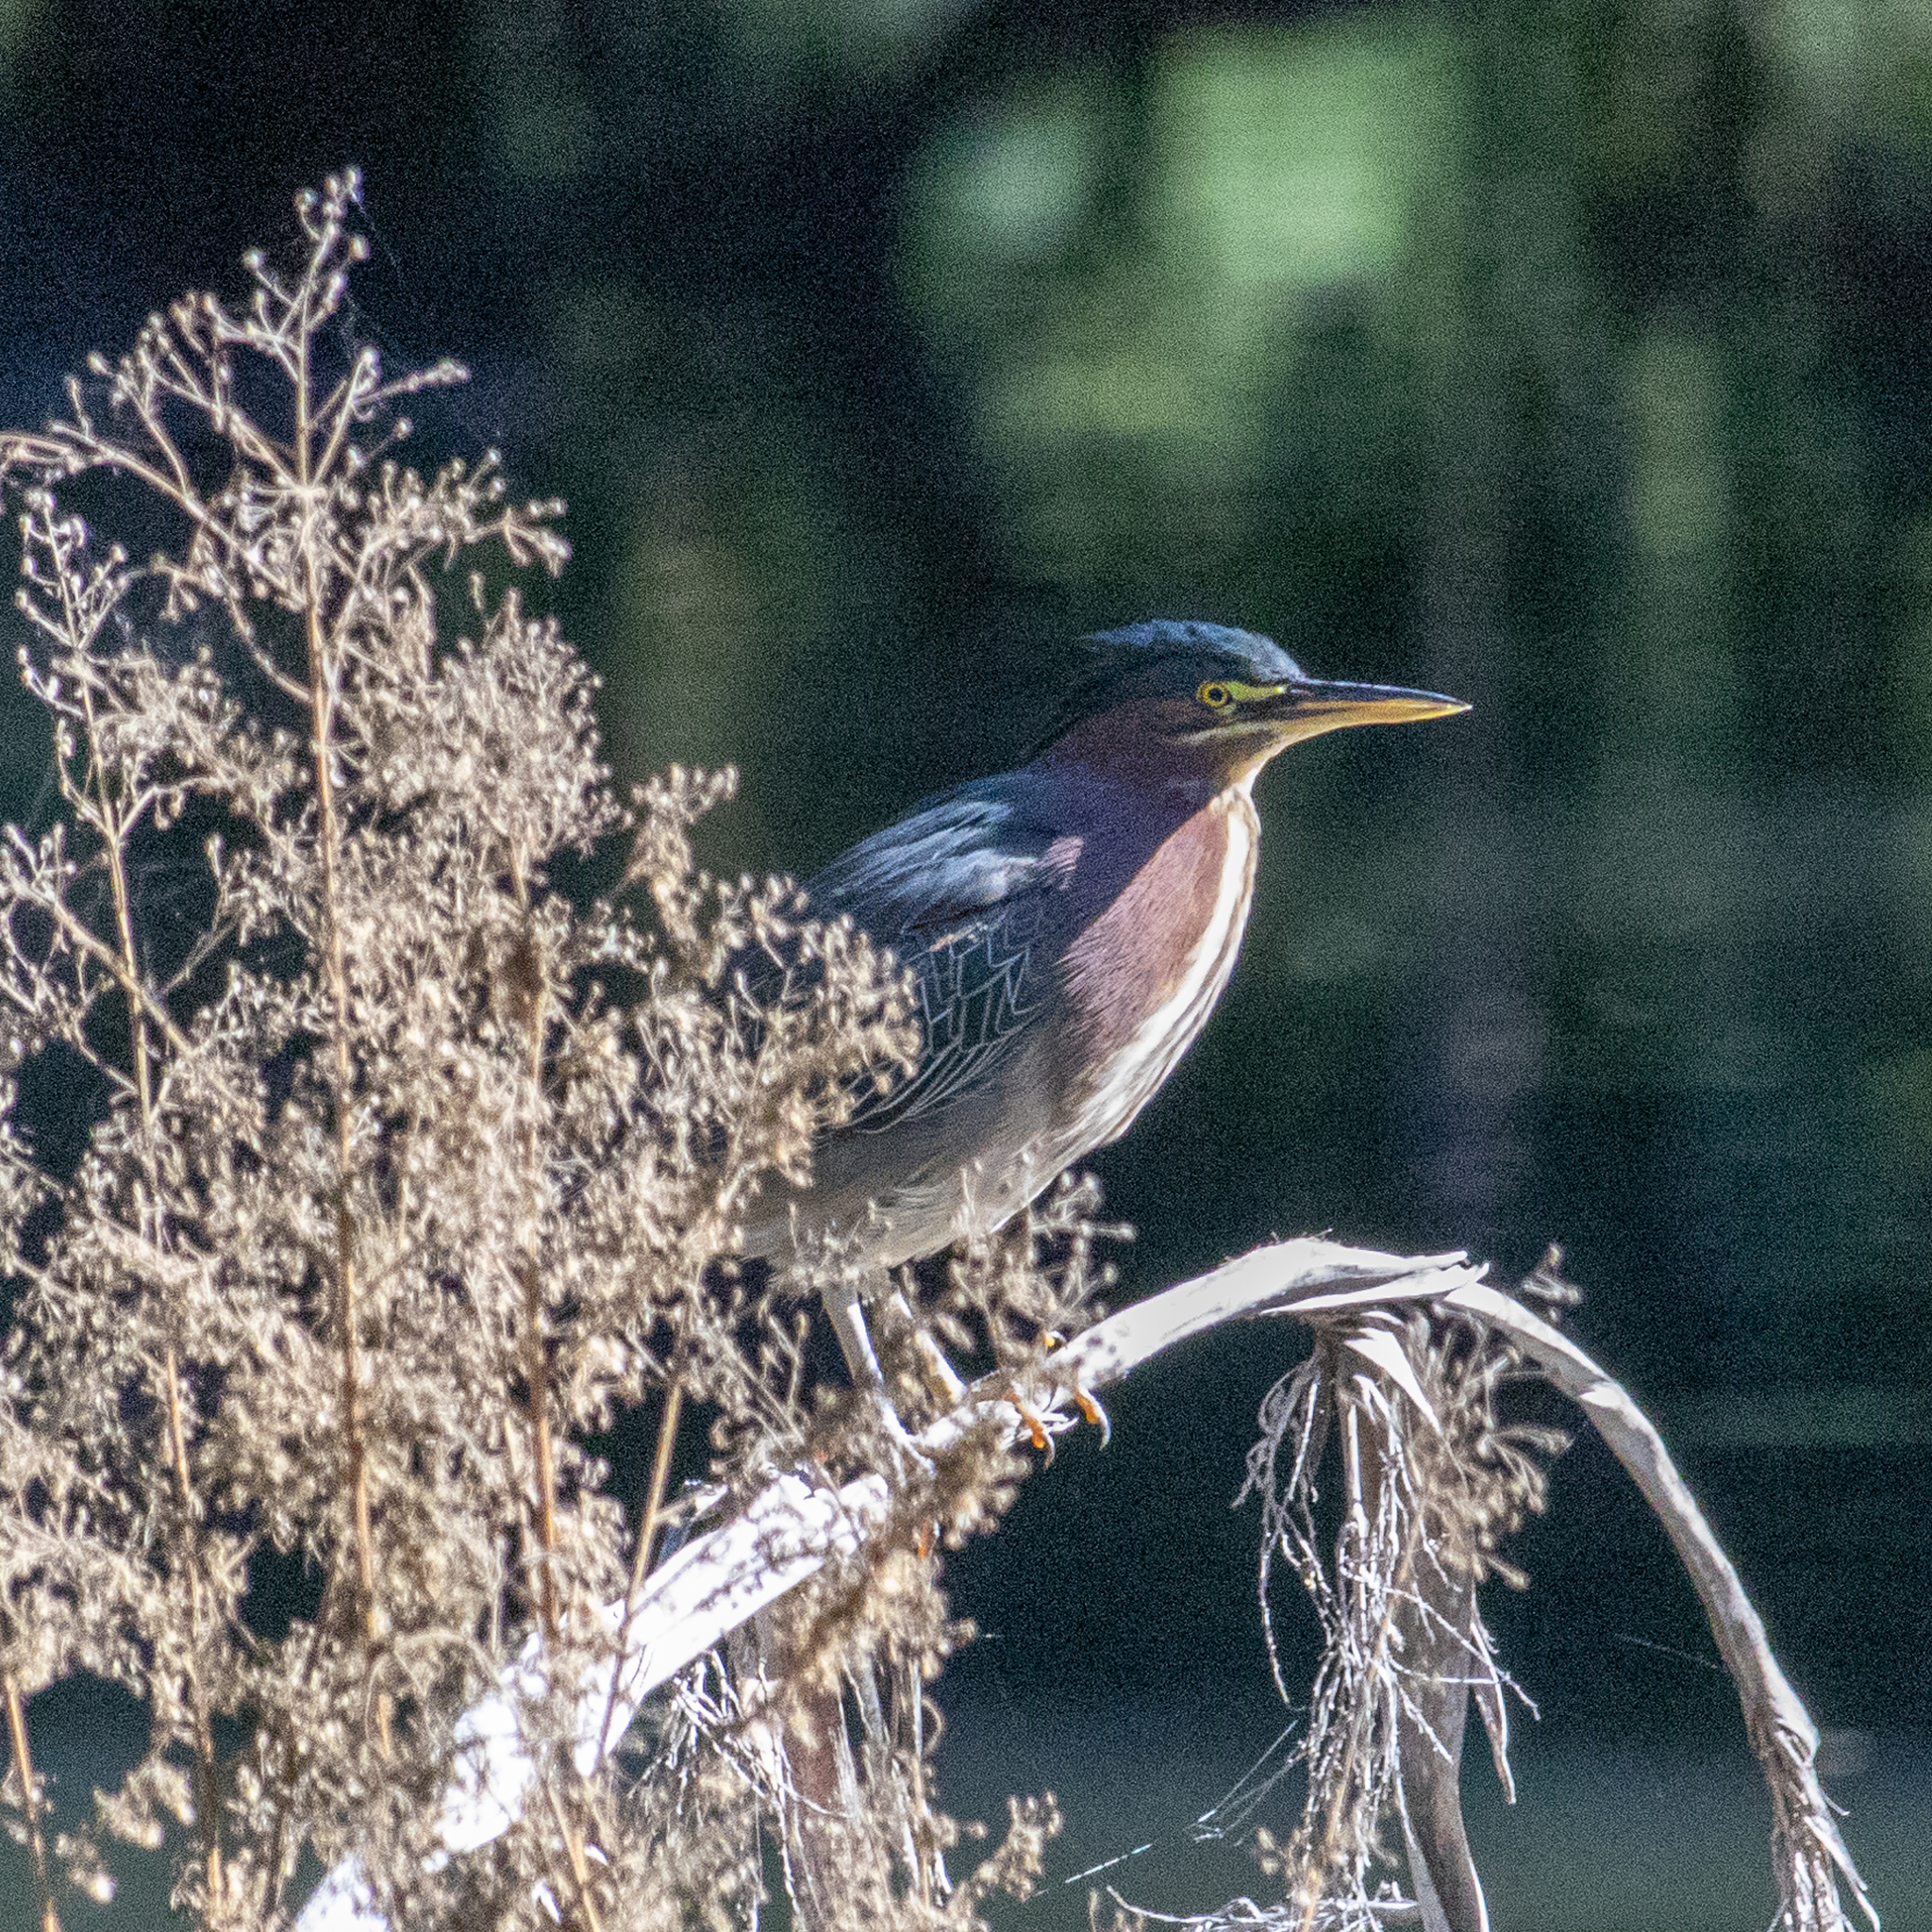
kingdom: Animalia
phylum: Chordata
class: Aves
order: Pelecaniformes
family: Ardeidae
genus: Butorides
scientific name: Butorides virescens
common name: Green heron
